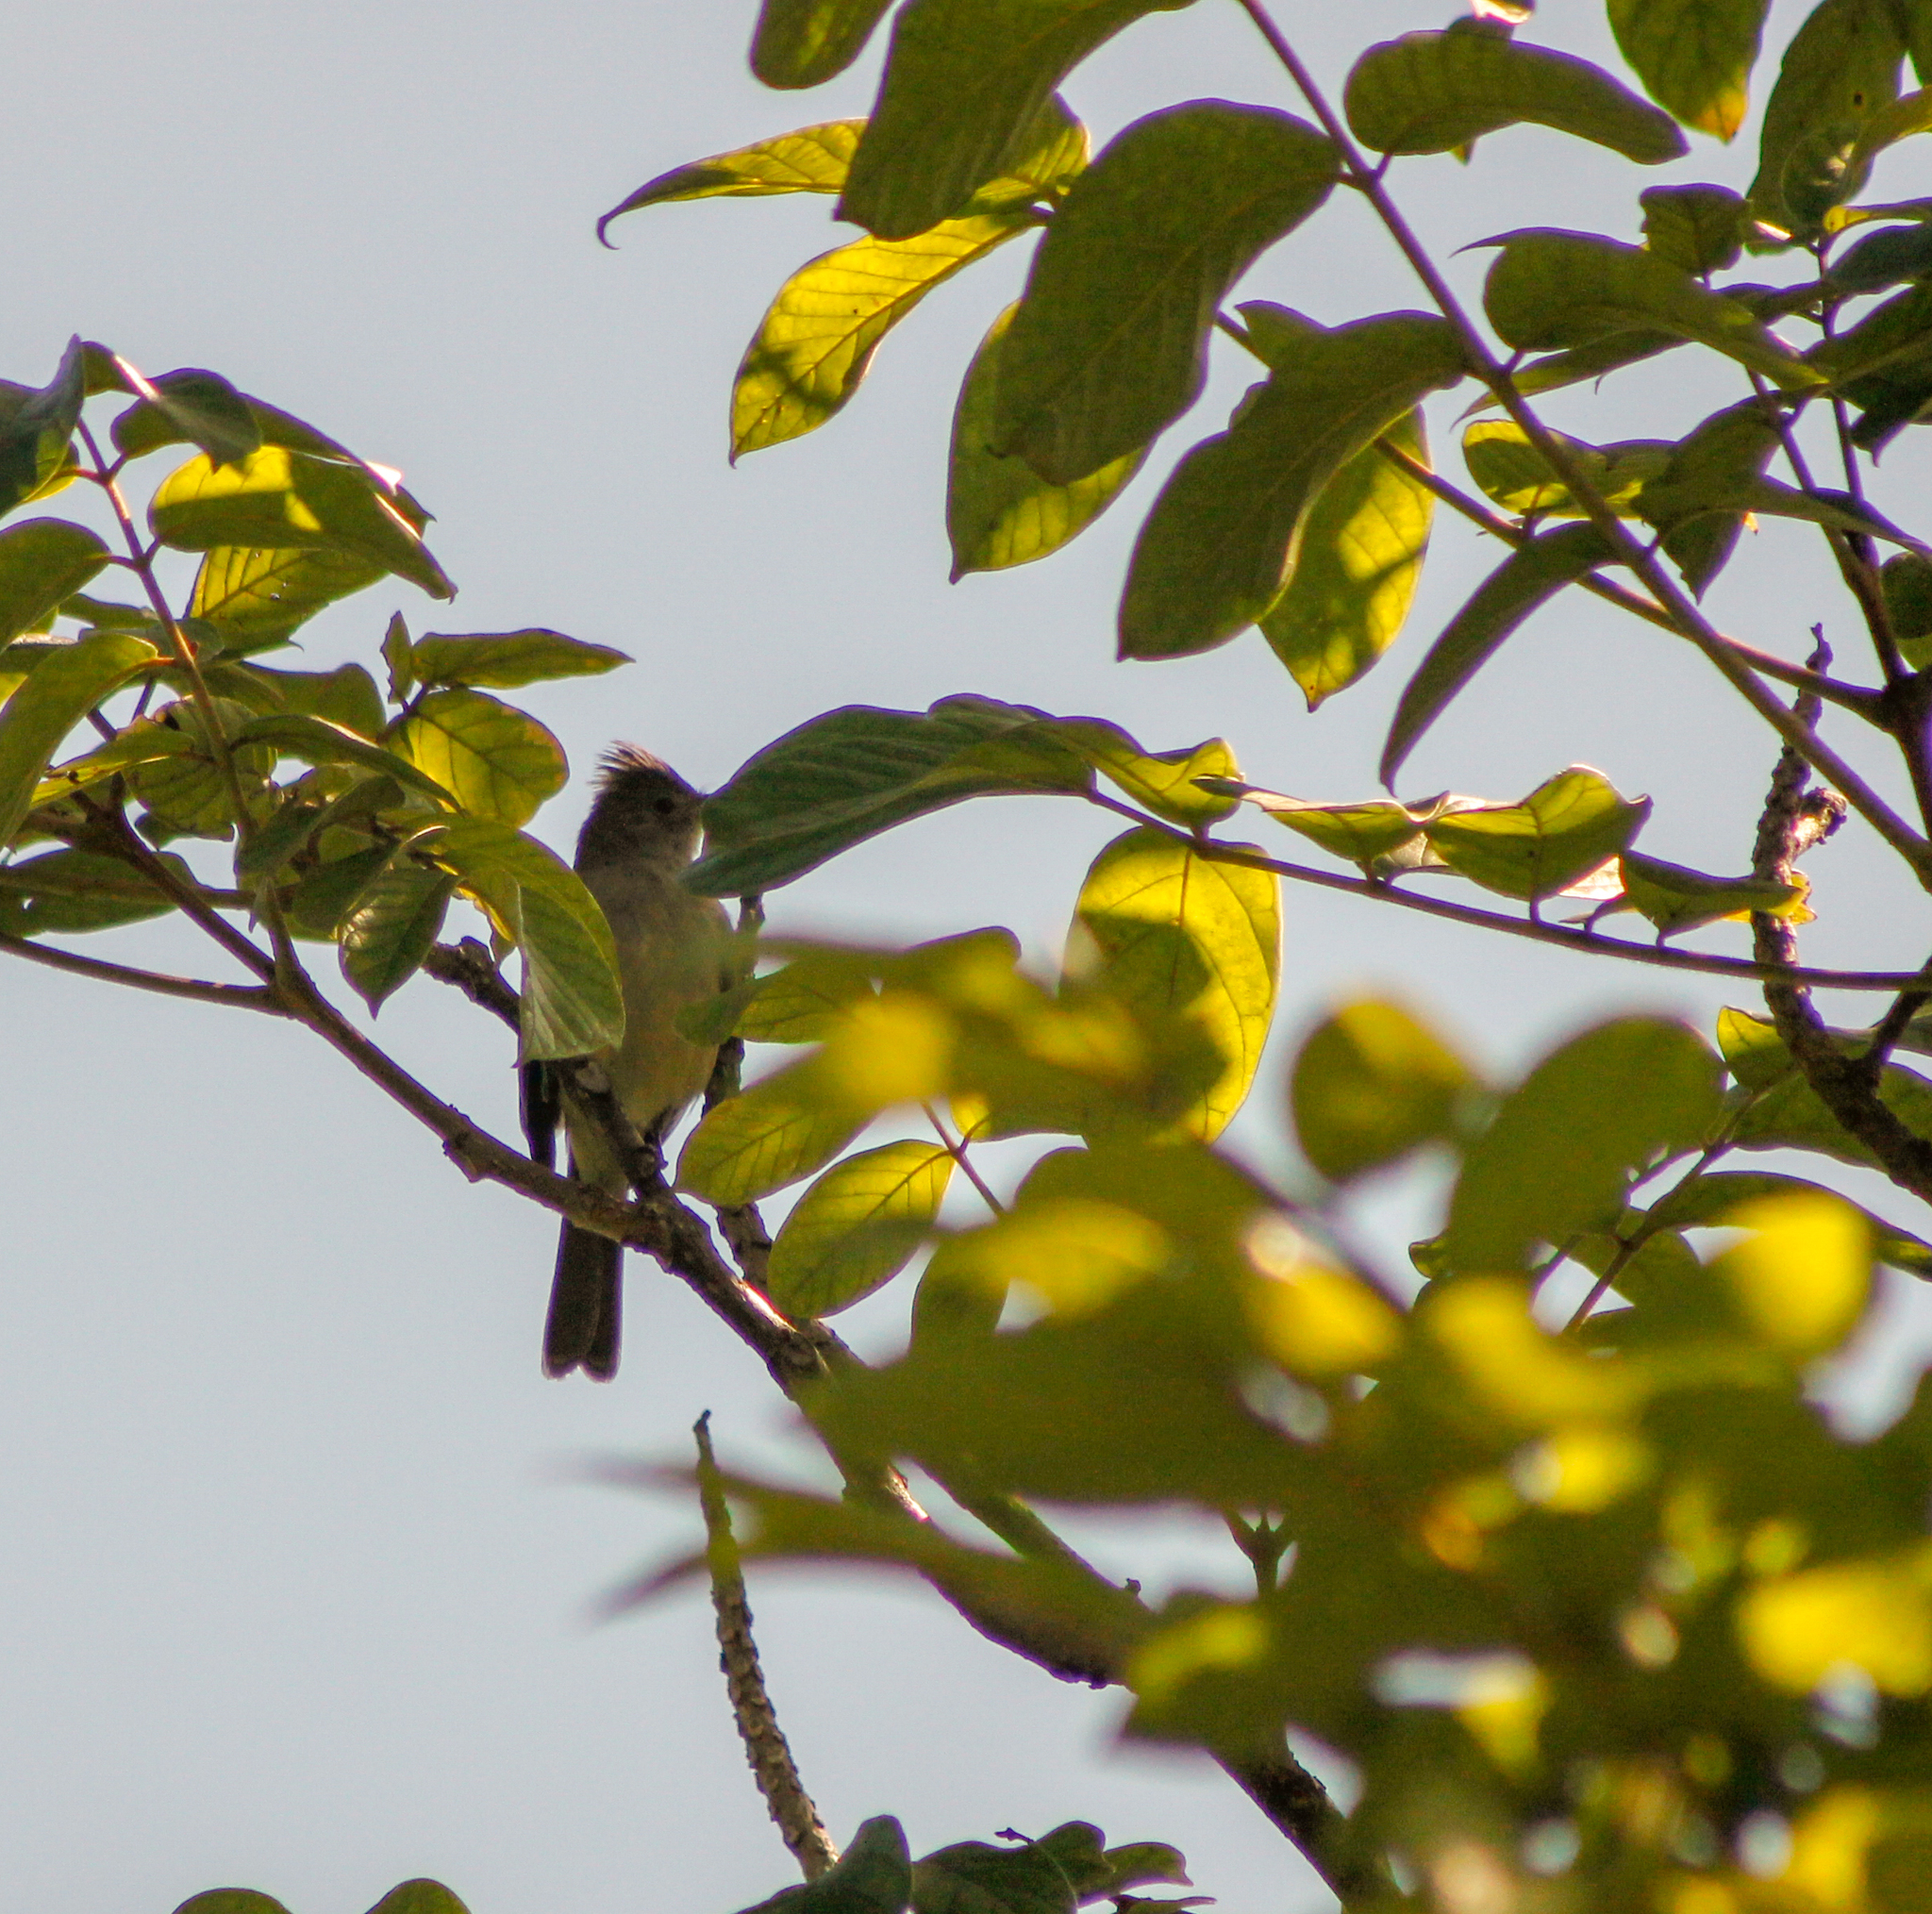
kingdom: Animalia
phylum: Chordata
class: Aves
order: Passeriformes
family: Tyrannidae
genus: Elaenia
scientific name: Elaenia flavogaster
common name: Yellow-bellied elaenia
